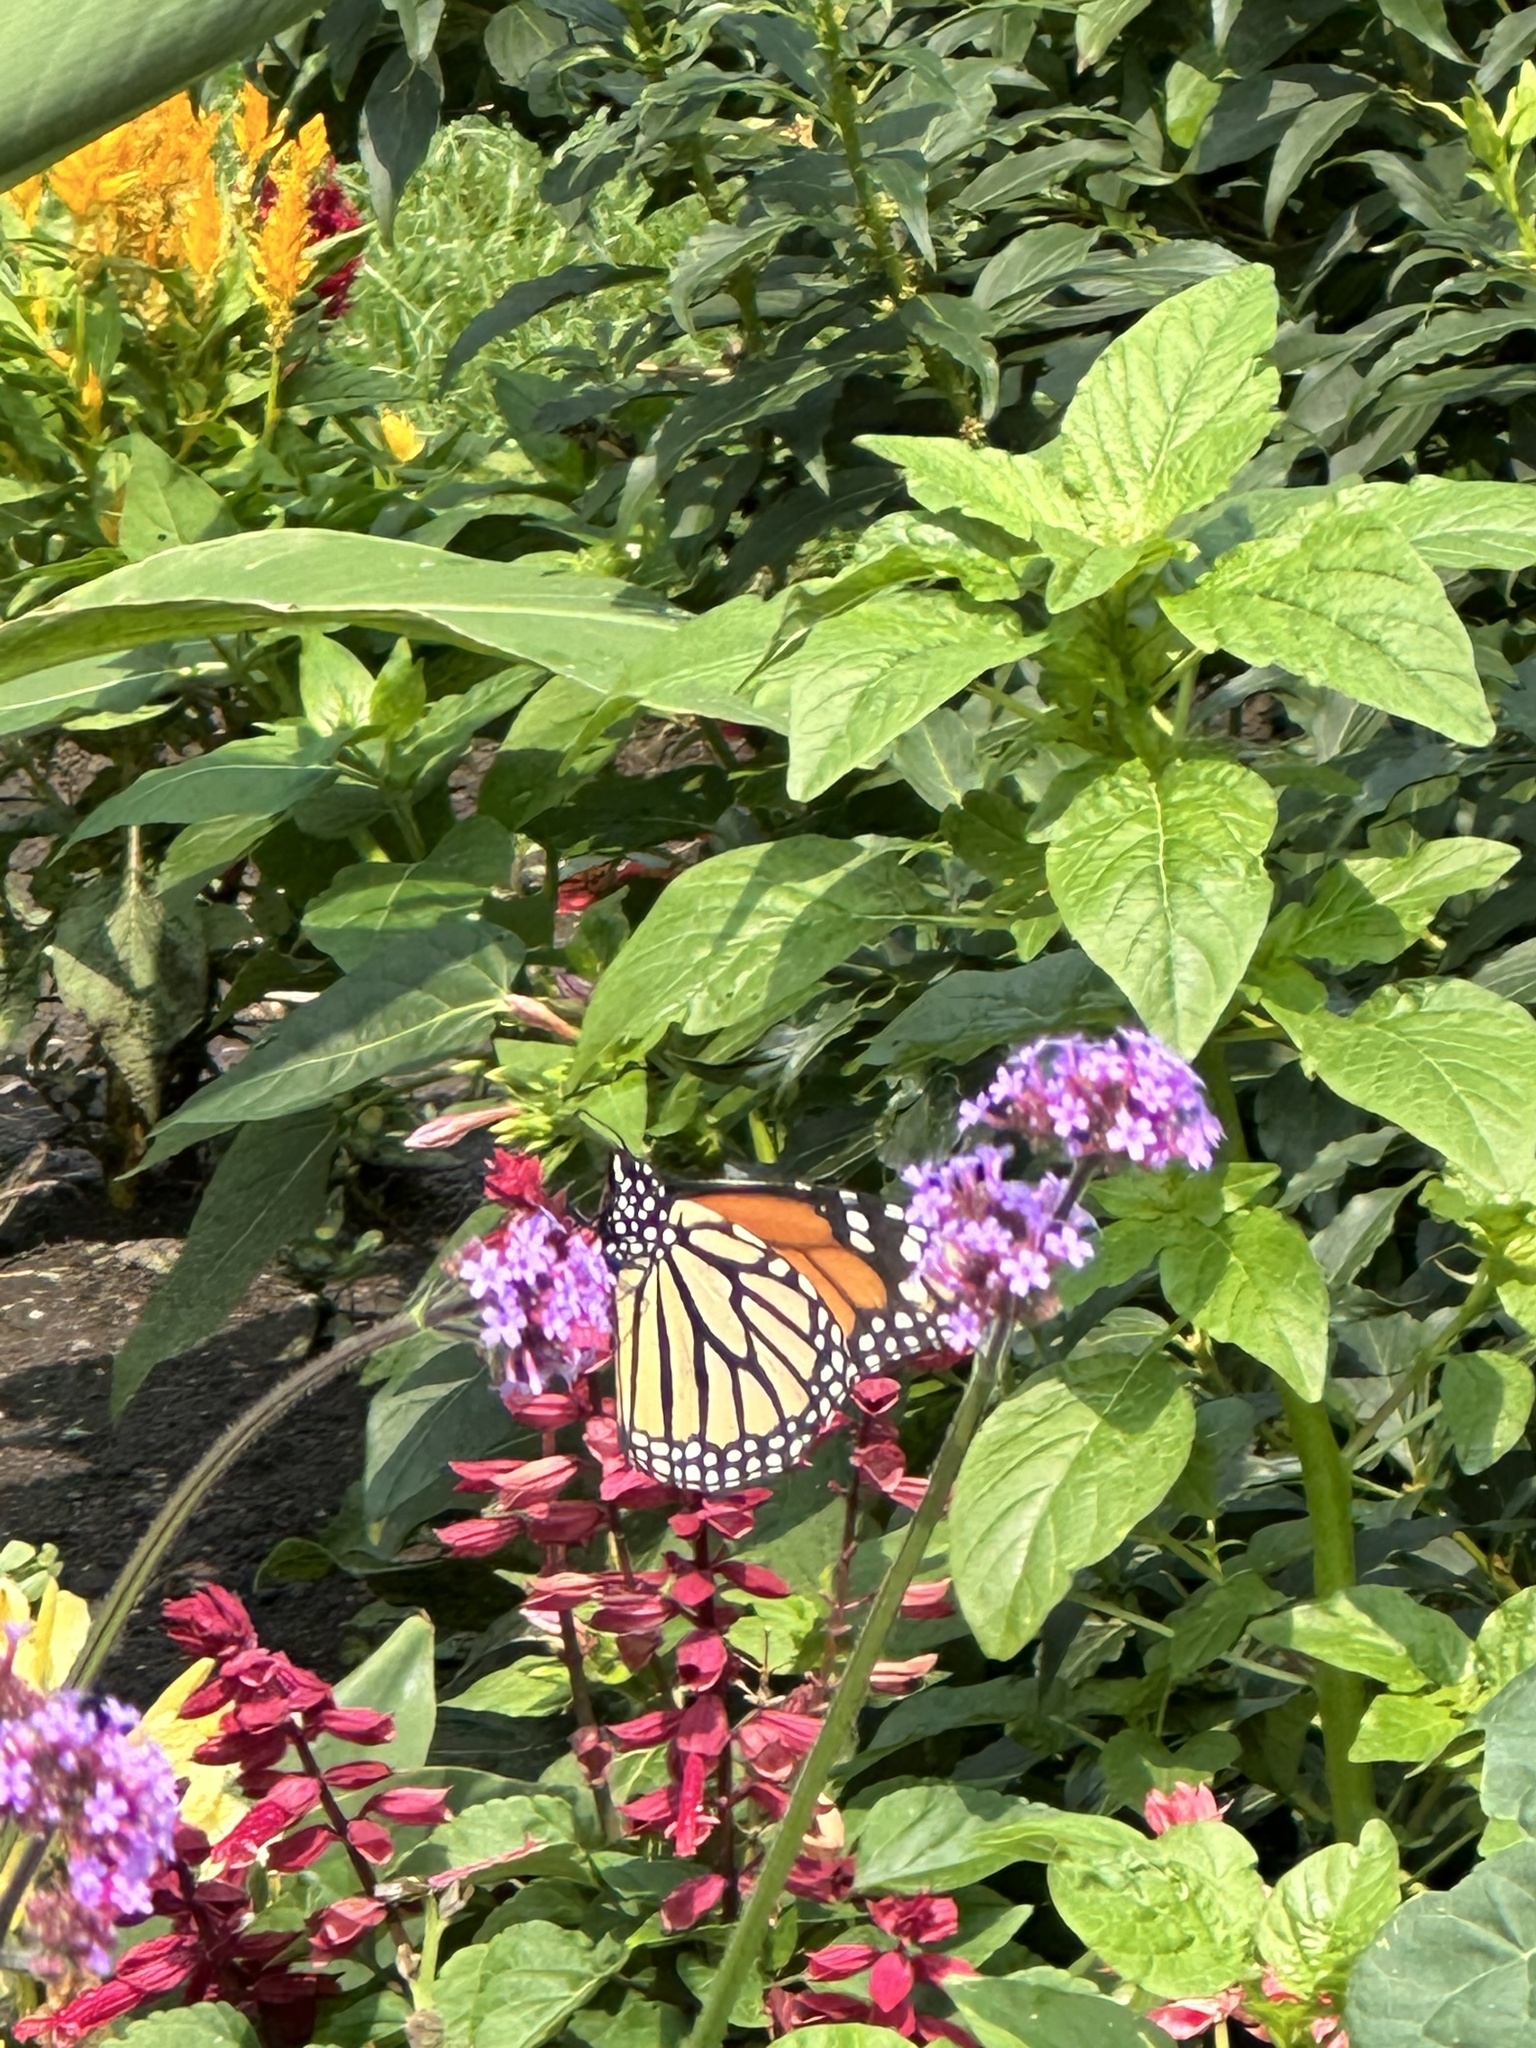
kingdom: Animalia
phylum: Arthropoda
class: Insecta
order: Lepidoptera
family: Nymphalidae
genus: Danaus
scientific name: Danaus plexippus
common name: Monarch
